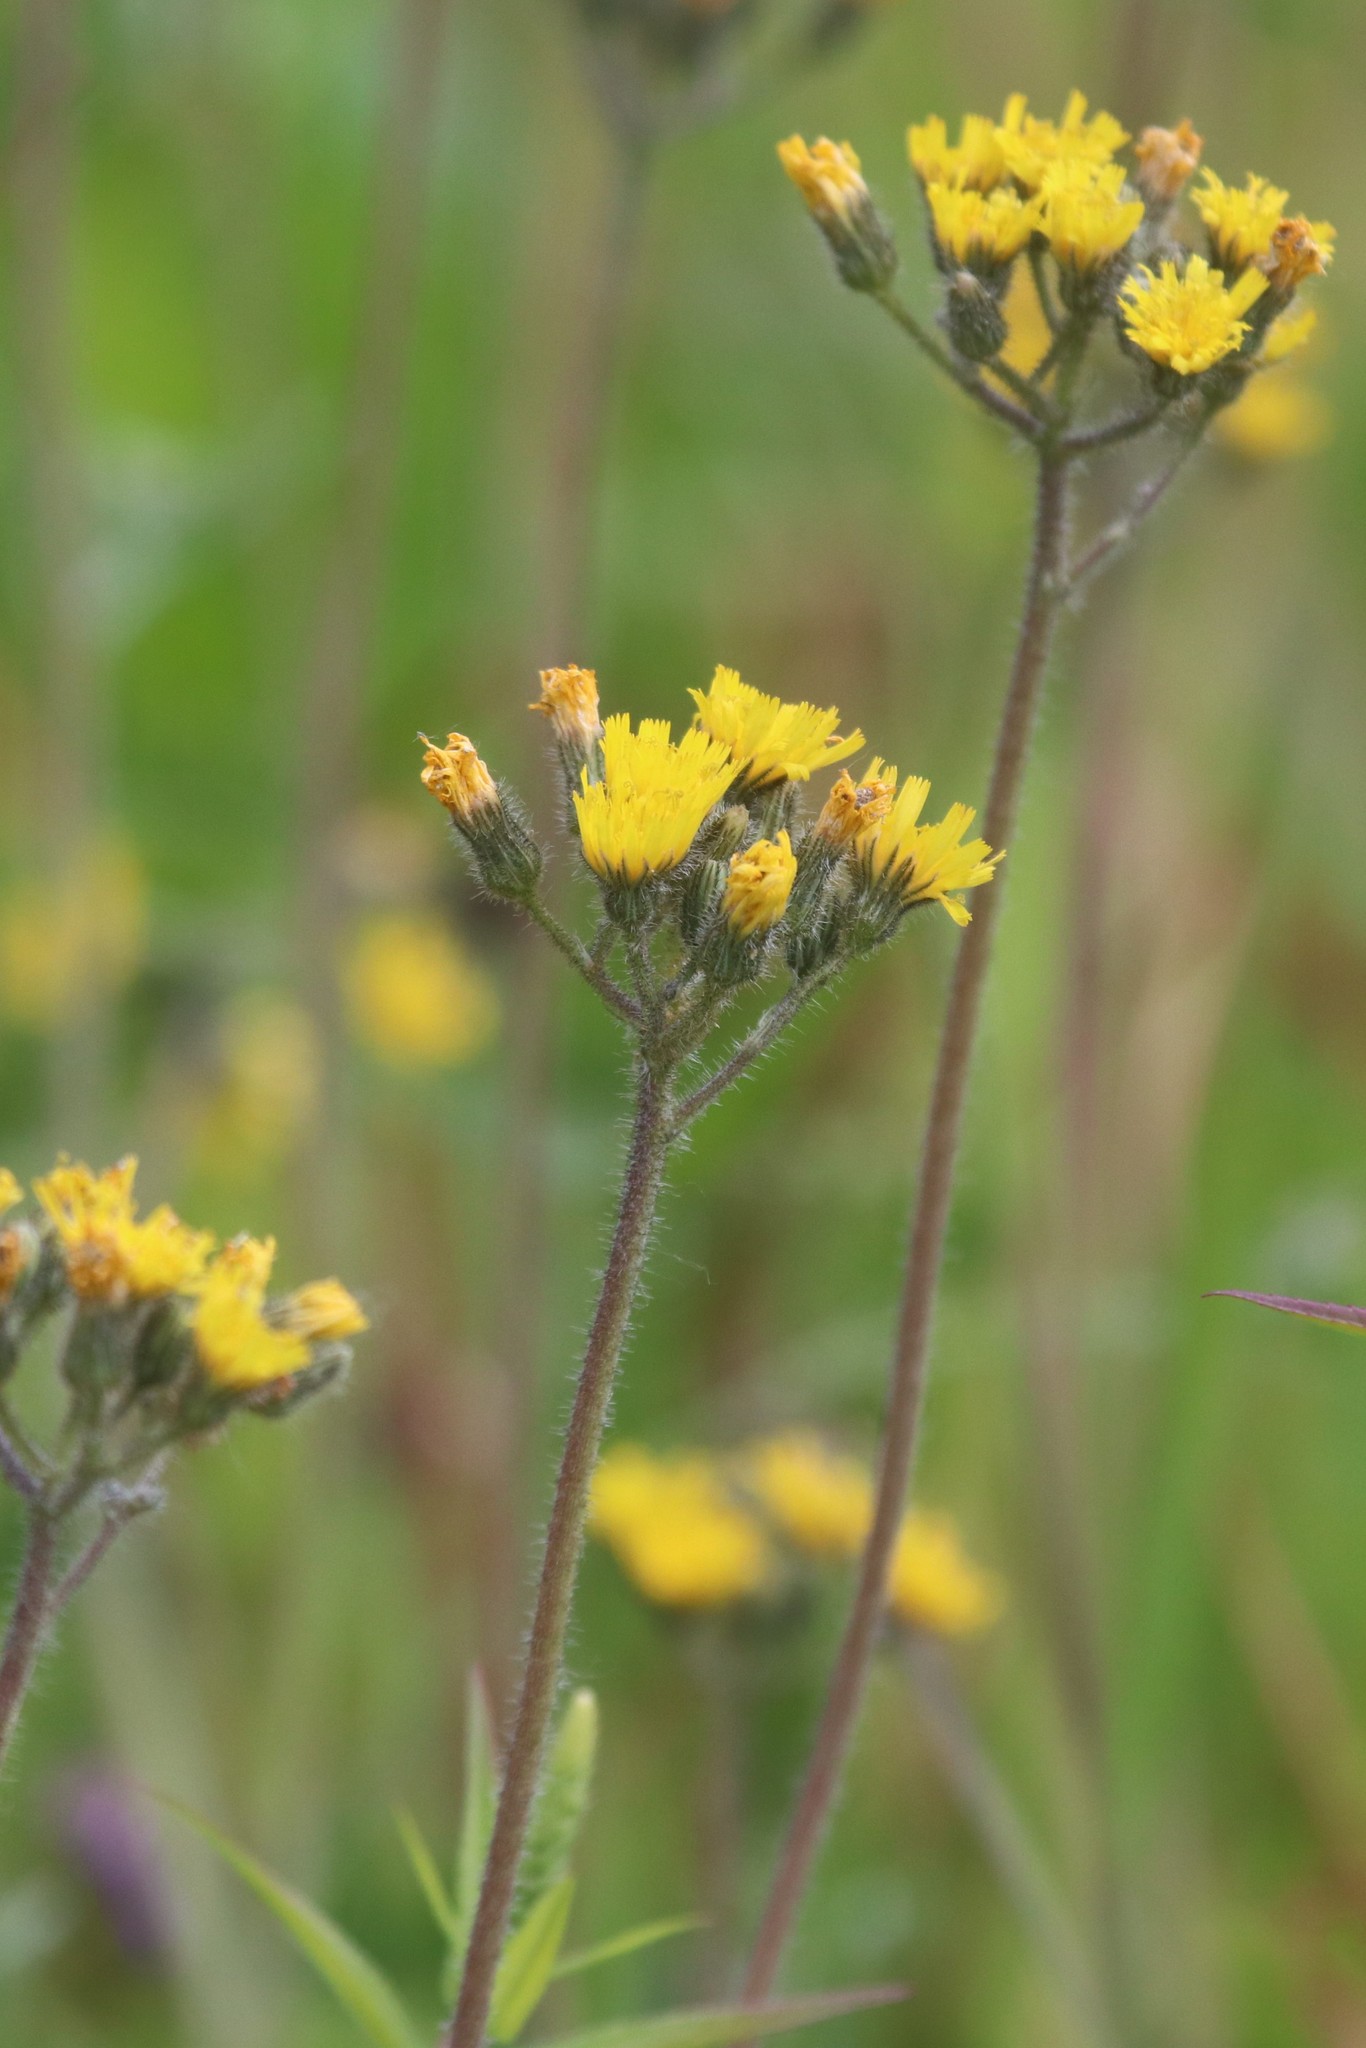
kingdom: Plantae
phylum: Tracheophyta
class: Magnoliopsida
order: Asterales
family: Asteraceae
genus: Pilosella
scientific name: Pilosella
